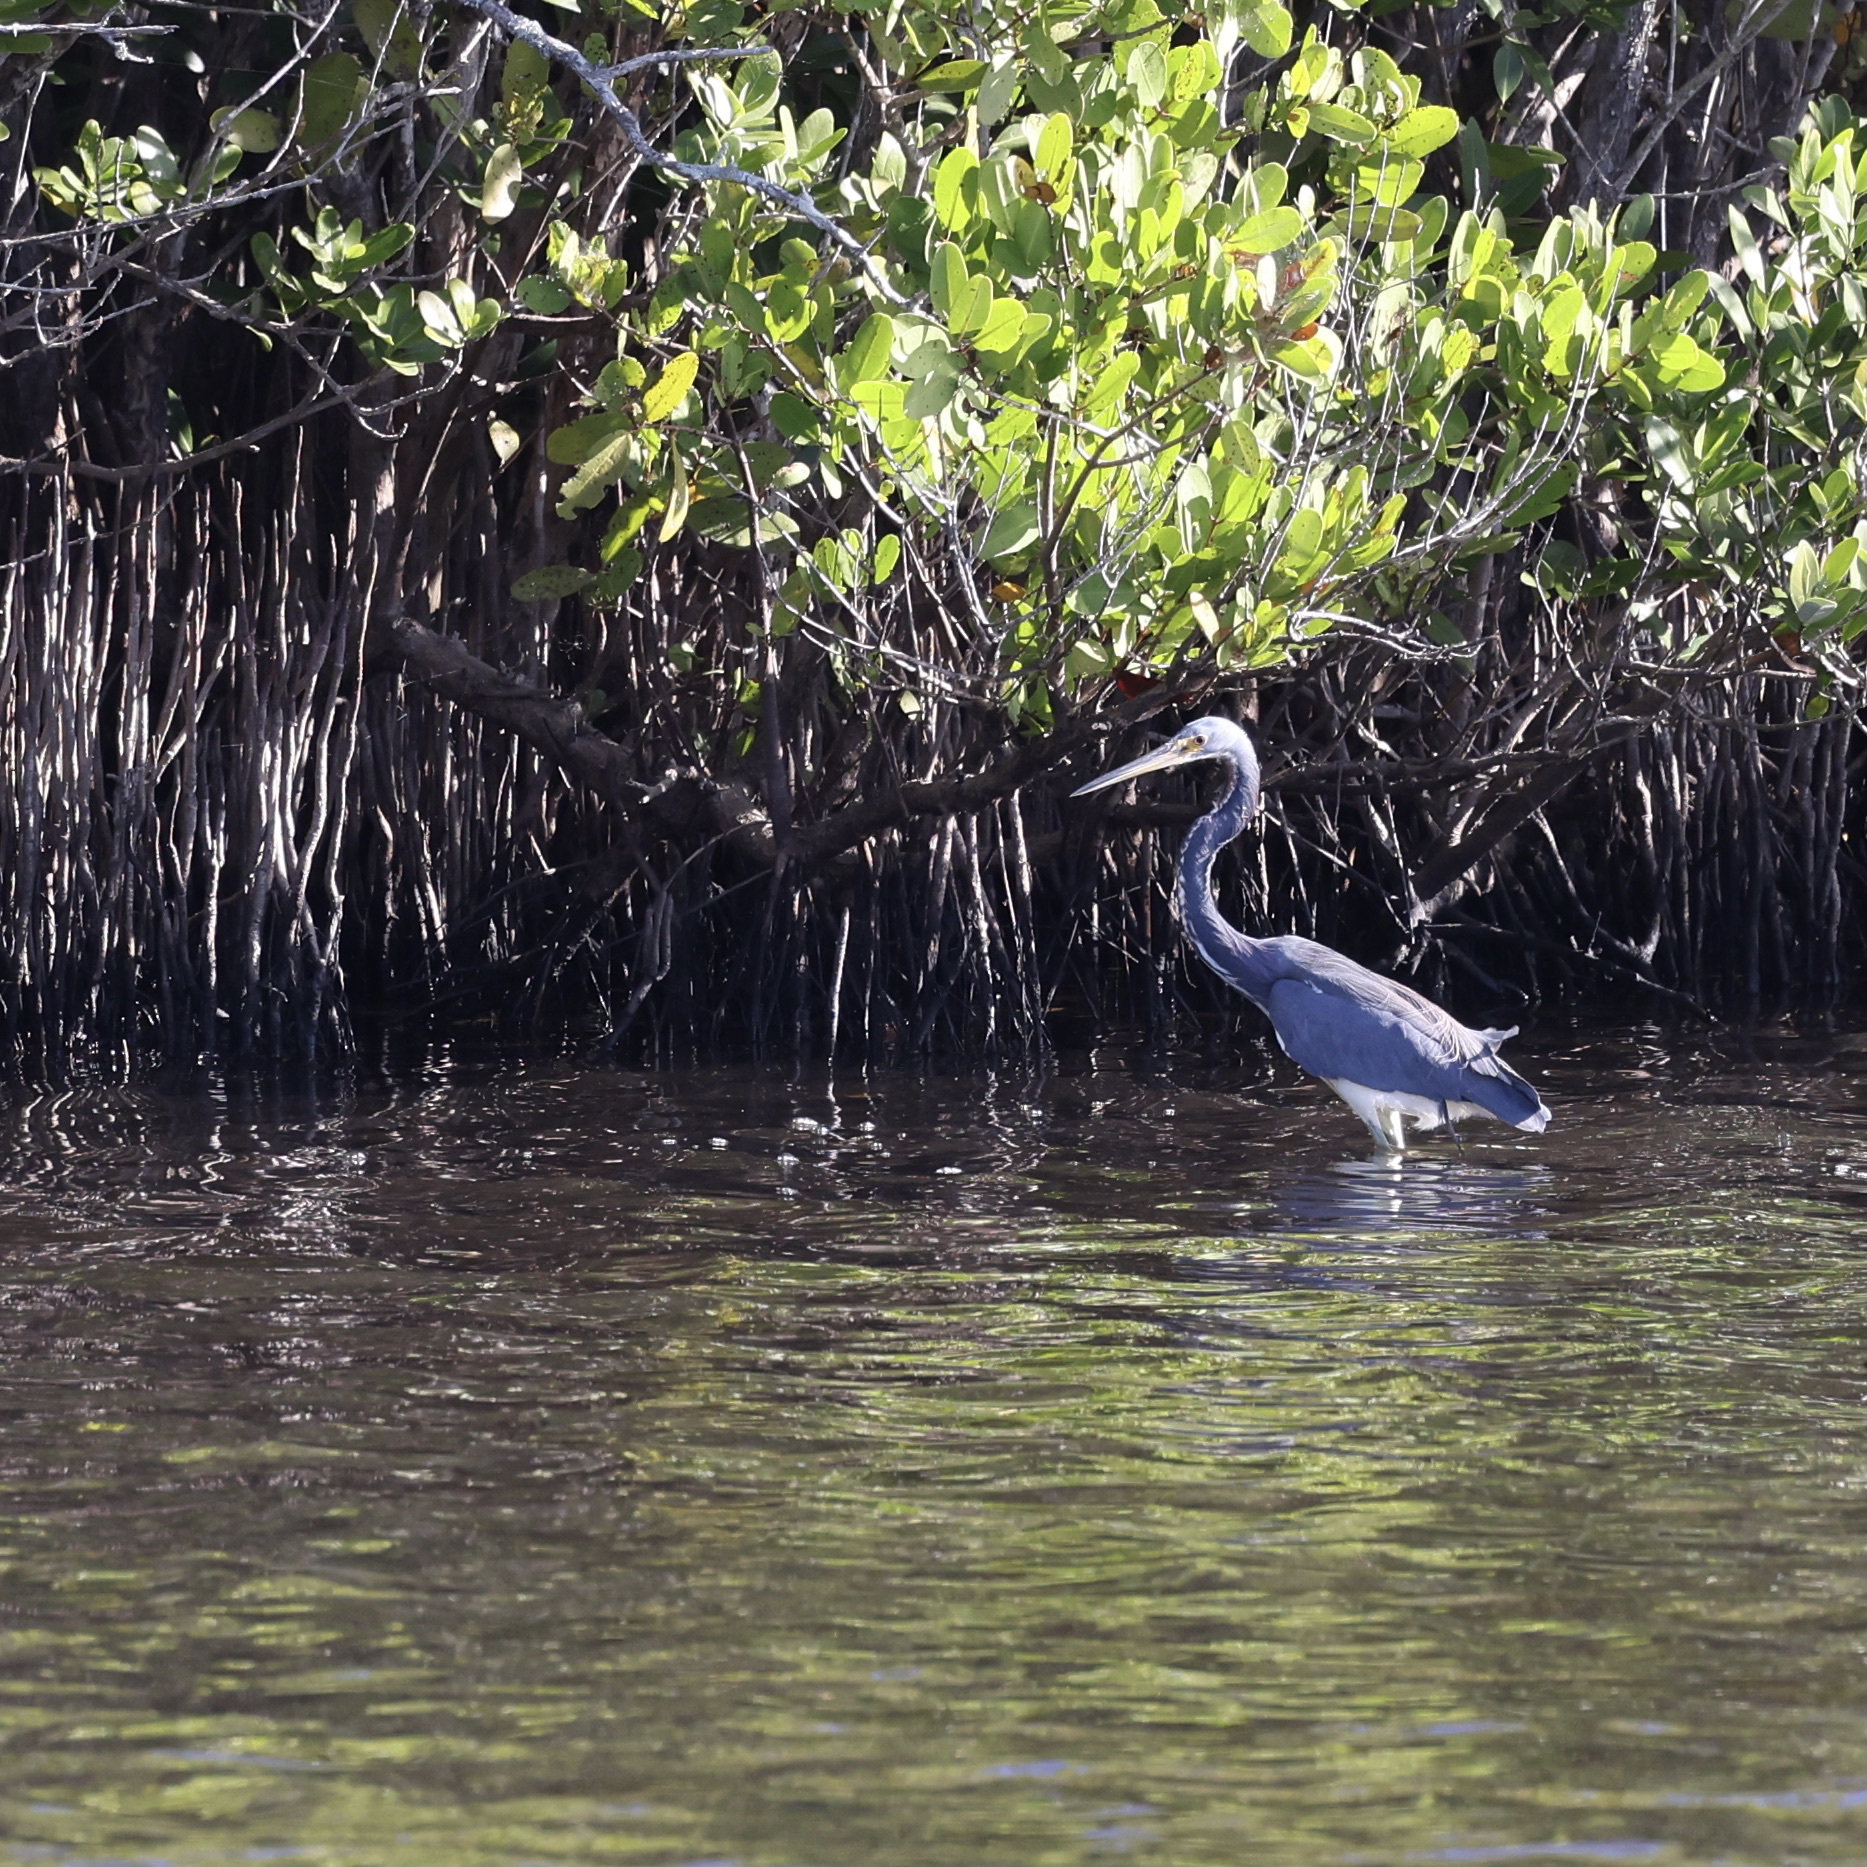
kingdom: Animalia
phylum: Chordata
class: Aves
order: Pelecaniformes
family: Ardeidae
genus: Egretta
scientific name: Egretta tricolor
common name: Tricolored heron
